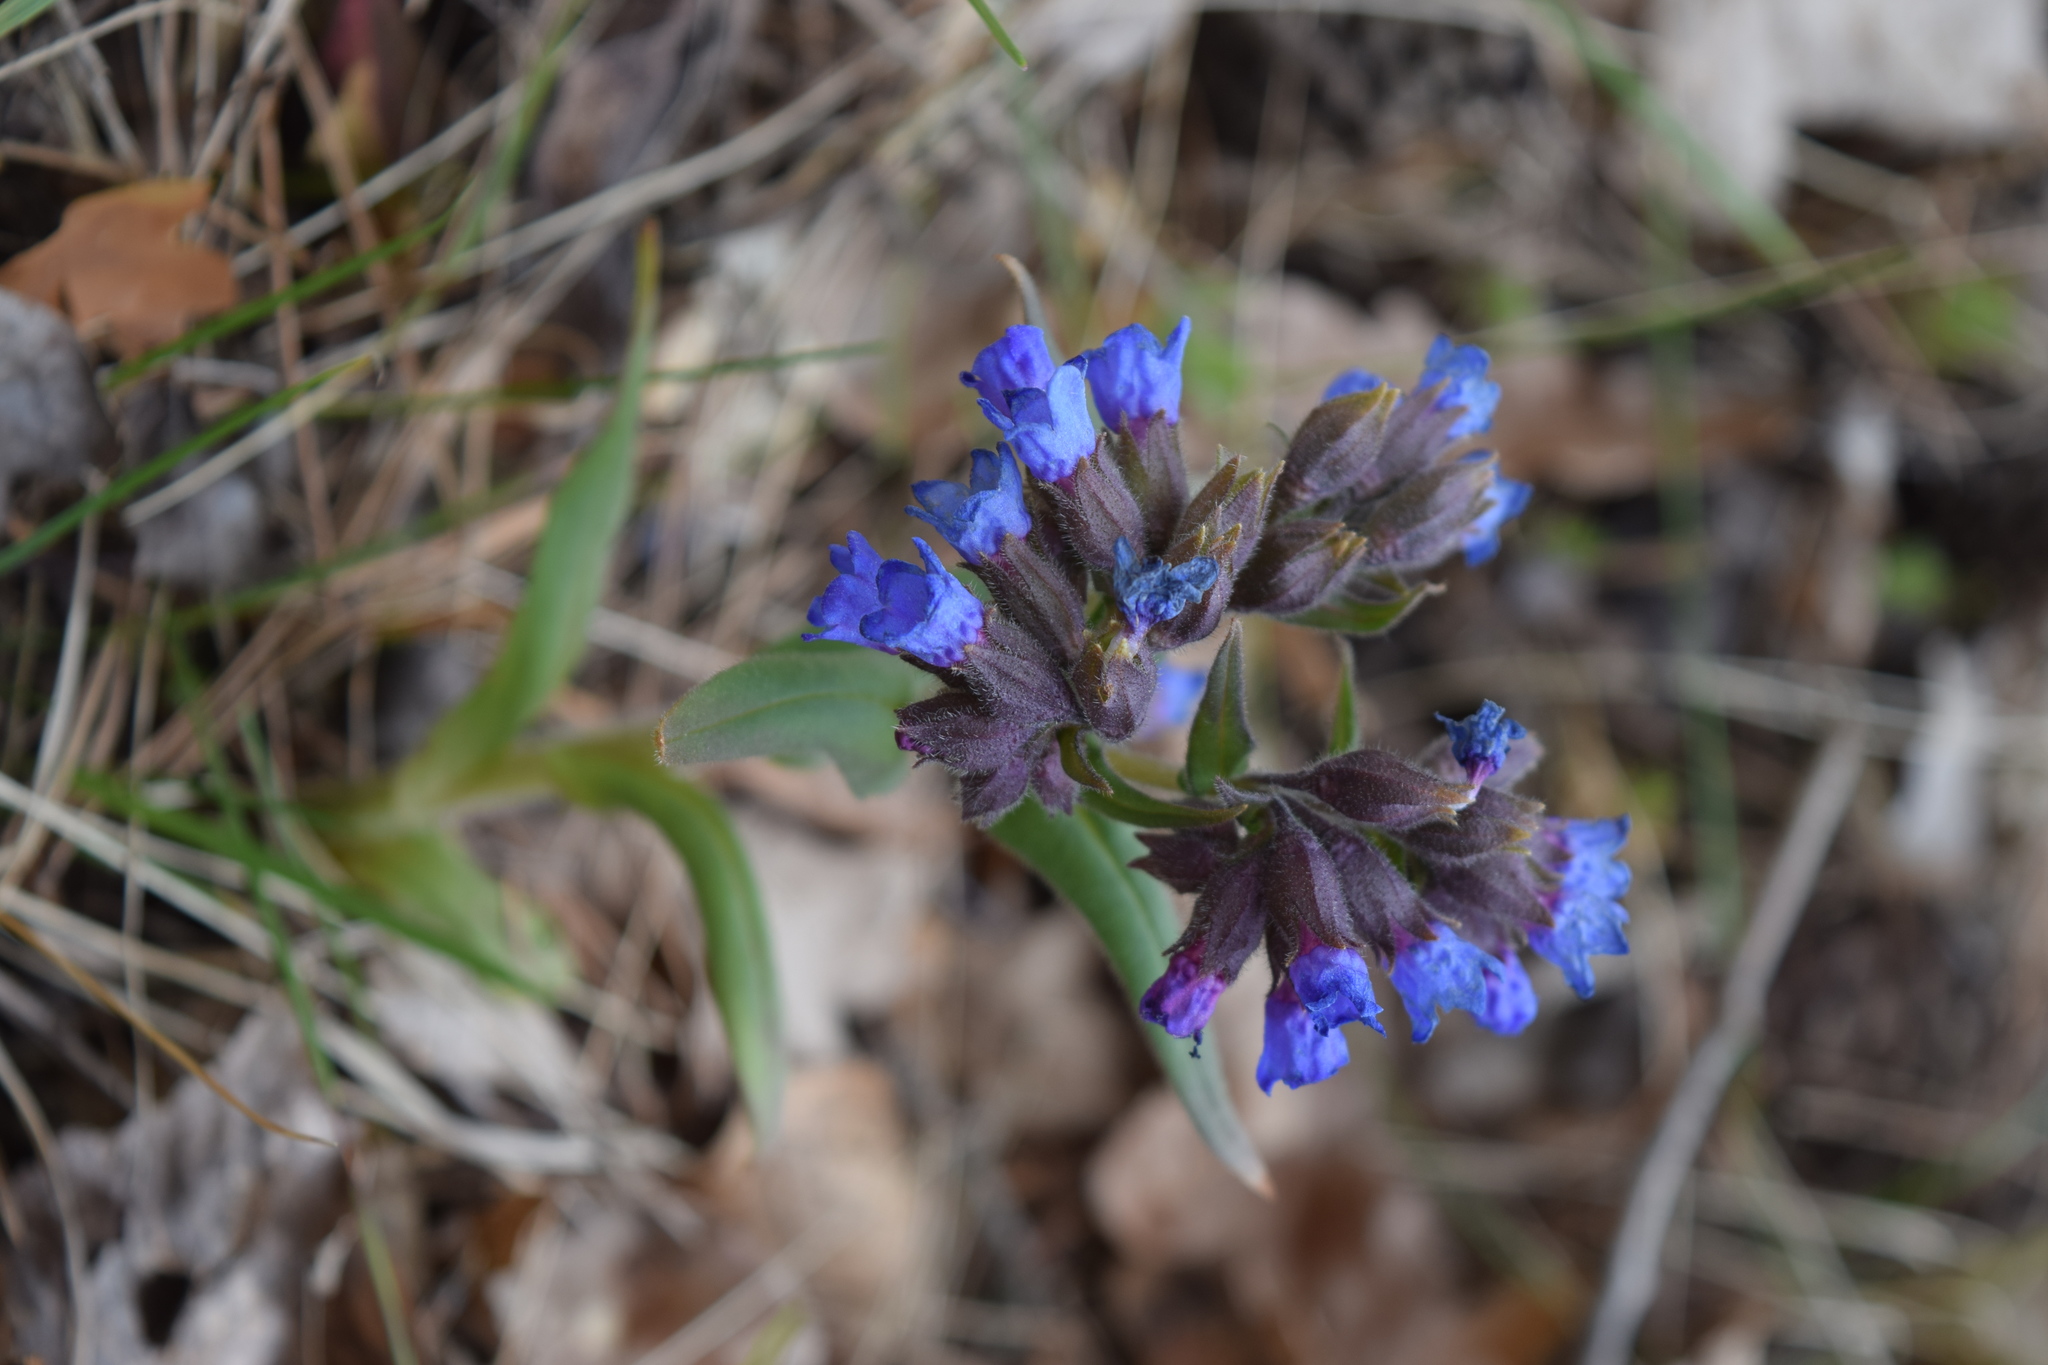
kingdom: Plantae
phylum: Tracheophyta
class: Magnoliopsida
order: Boraginales
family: Boraginaceae
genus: Pulmonaria
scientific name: Pulmonaria angustifolia
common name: Blue cowslip
